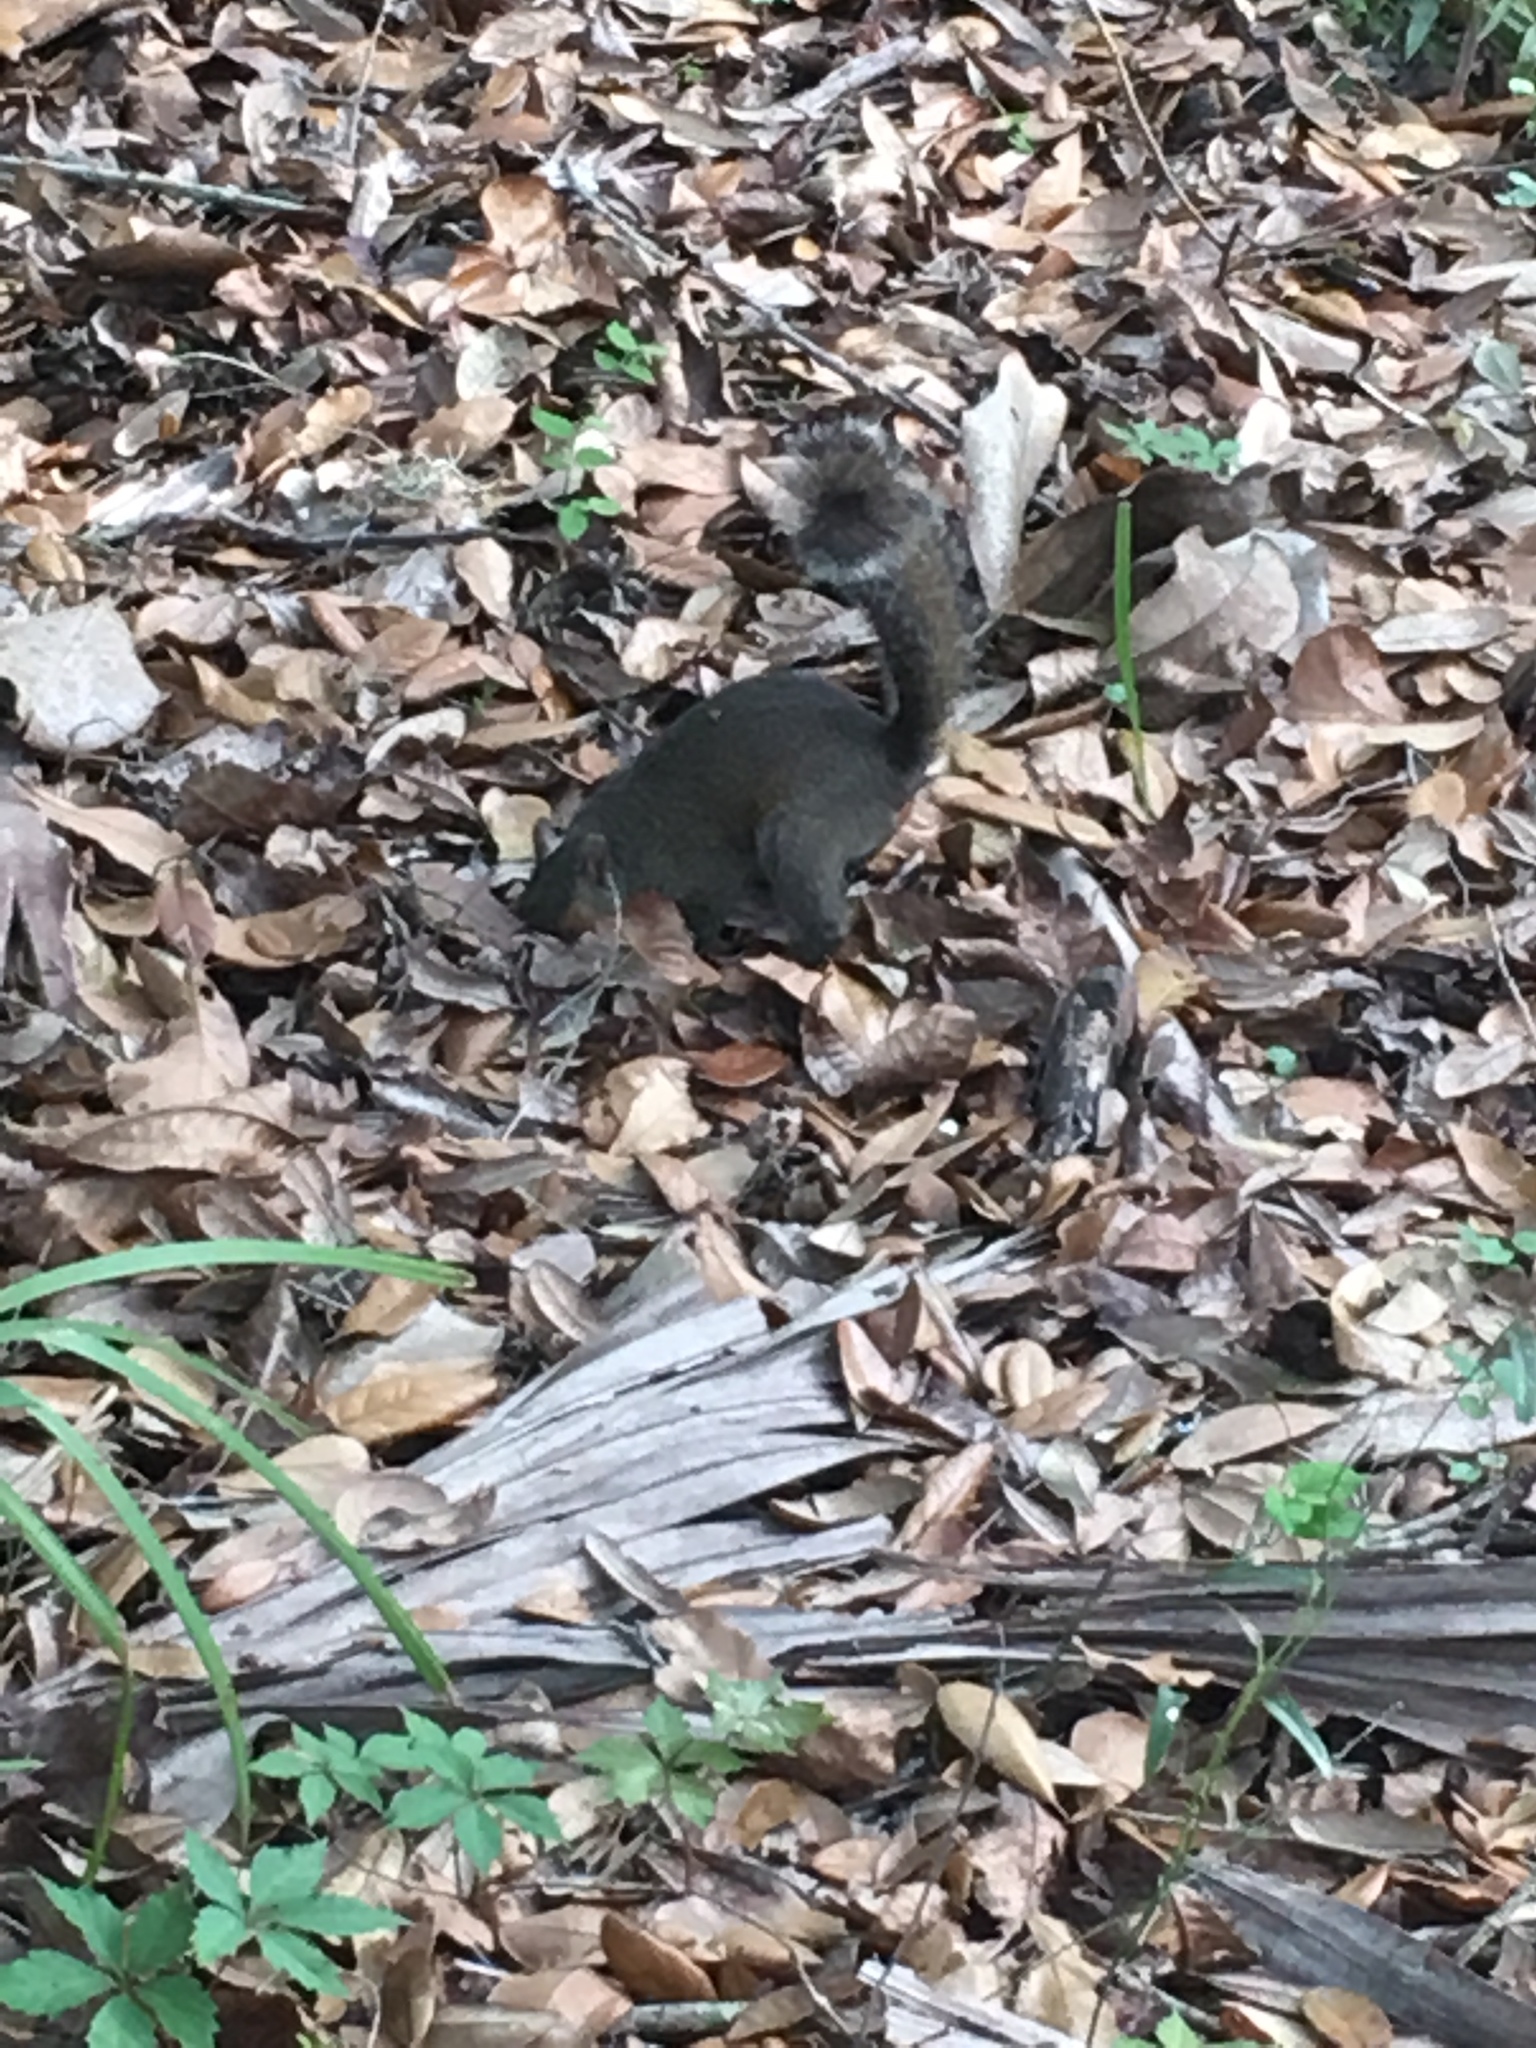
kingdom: Animalia
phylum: Chordata
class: Mammalia
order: Rodentia
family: Sciuridae
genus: Sciurus
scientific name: Sciurus carolinensis
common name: Eastern gray squirrel
